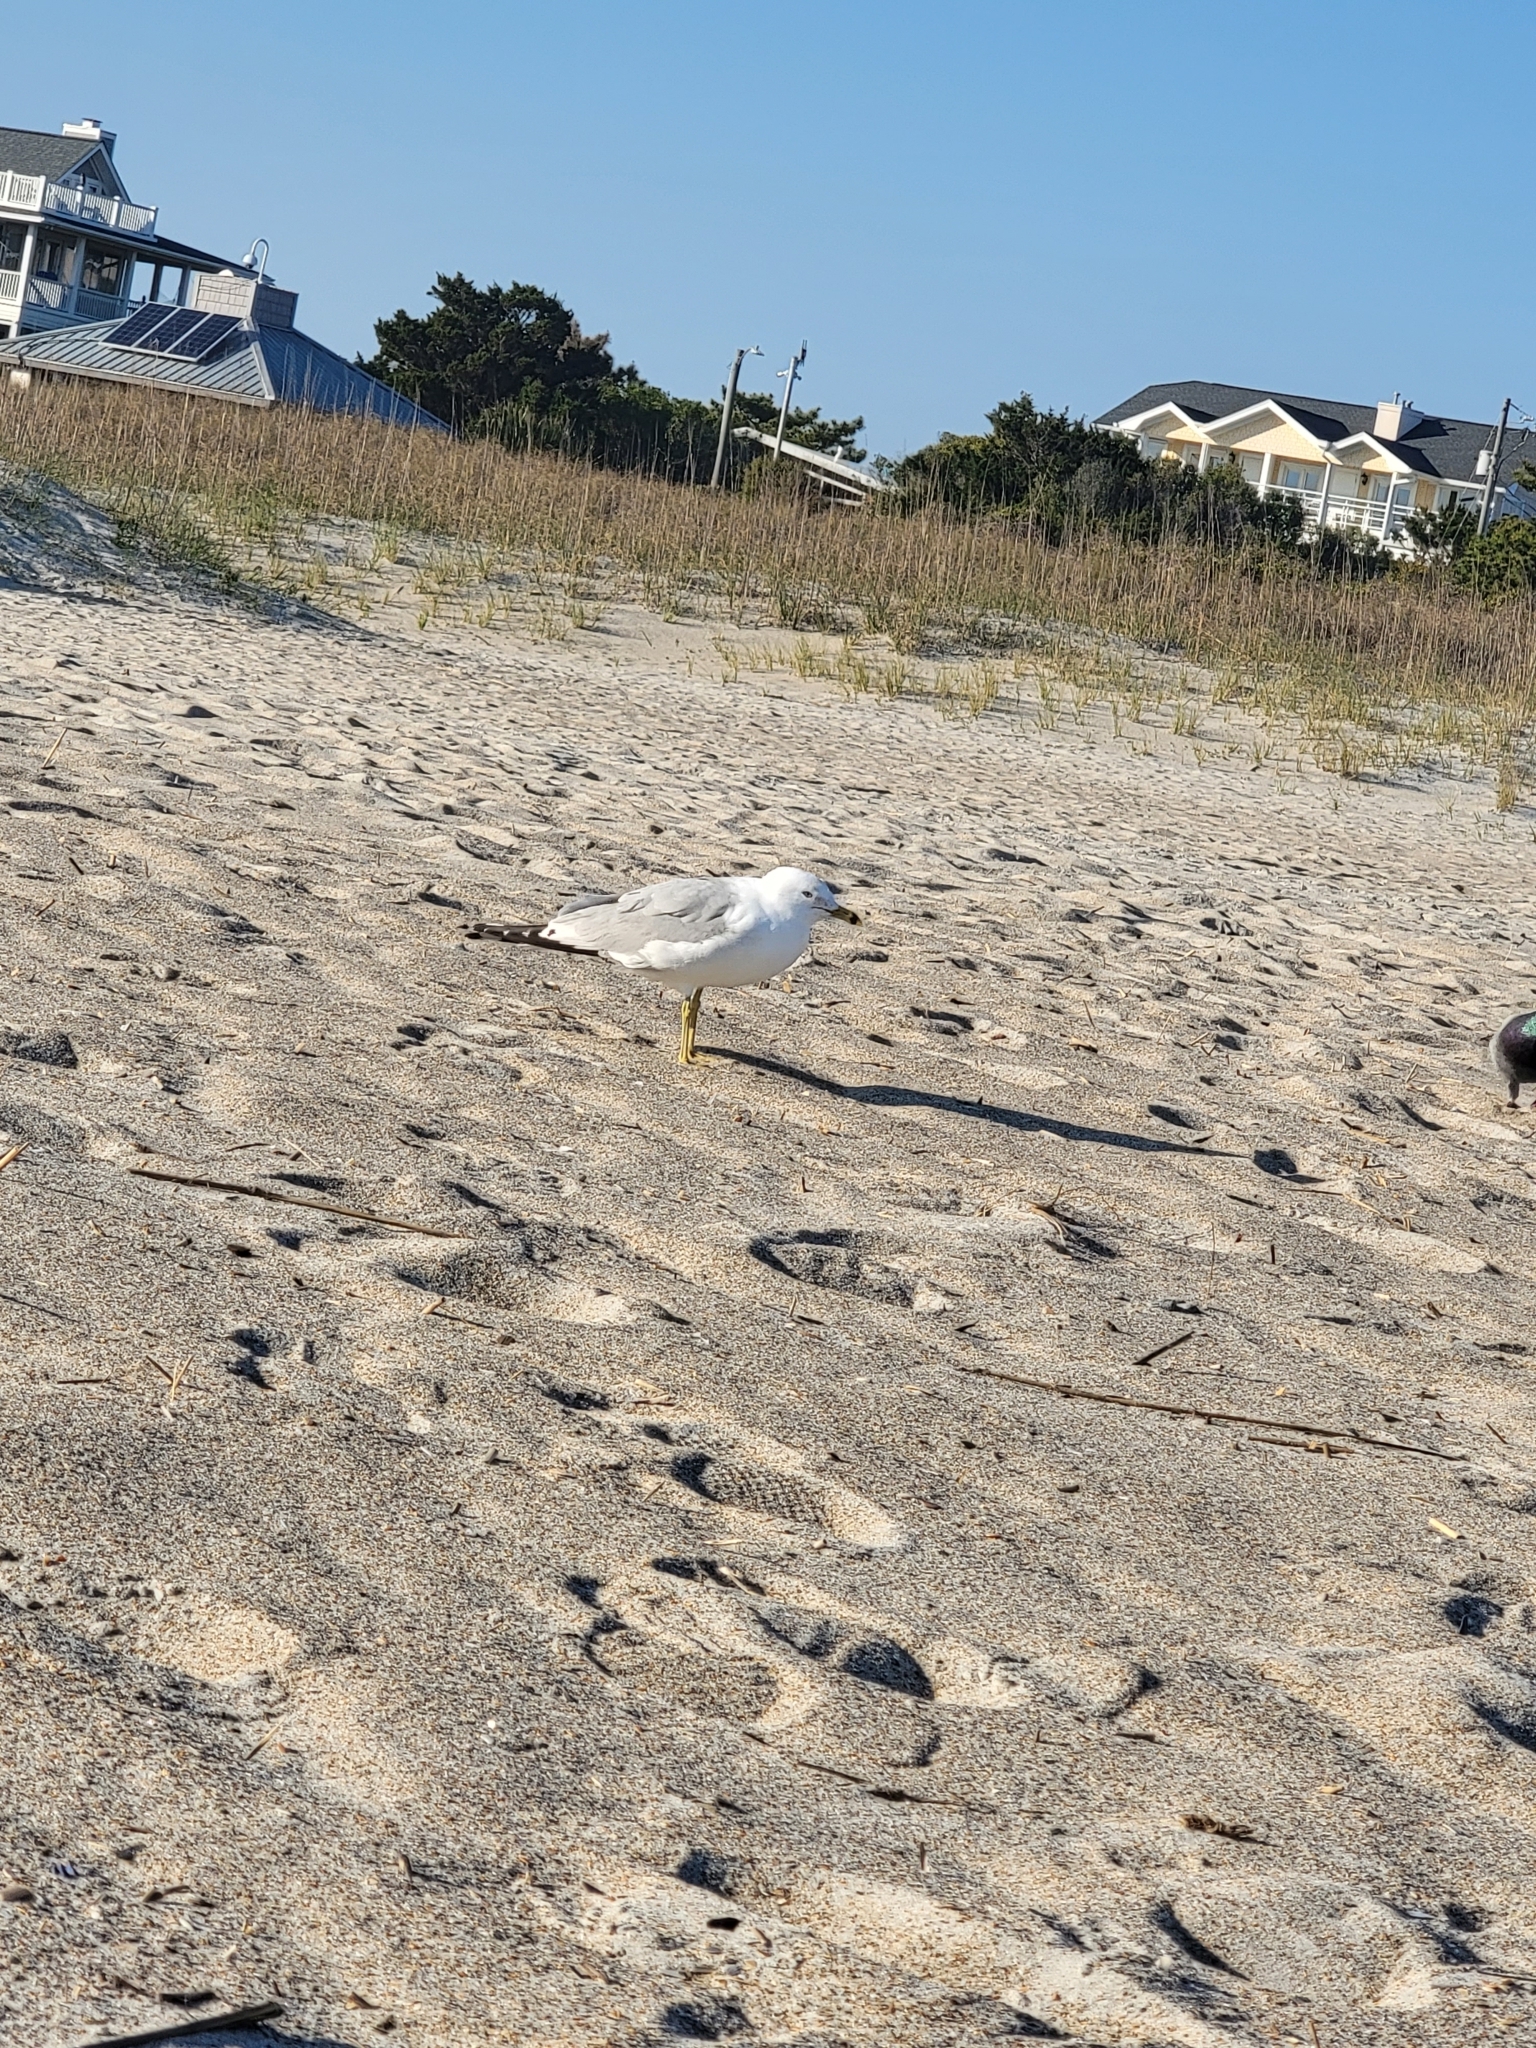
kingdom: Animalia
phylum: Chordata
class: Aves
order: Charadriiformes
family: Laridae
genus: Larus
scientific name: Larus delawarensis
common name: Ring-billed gull
